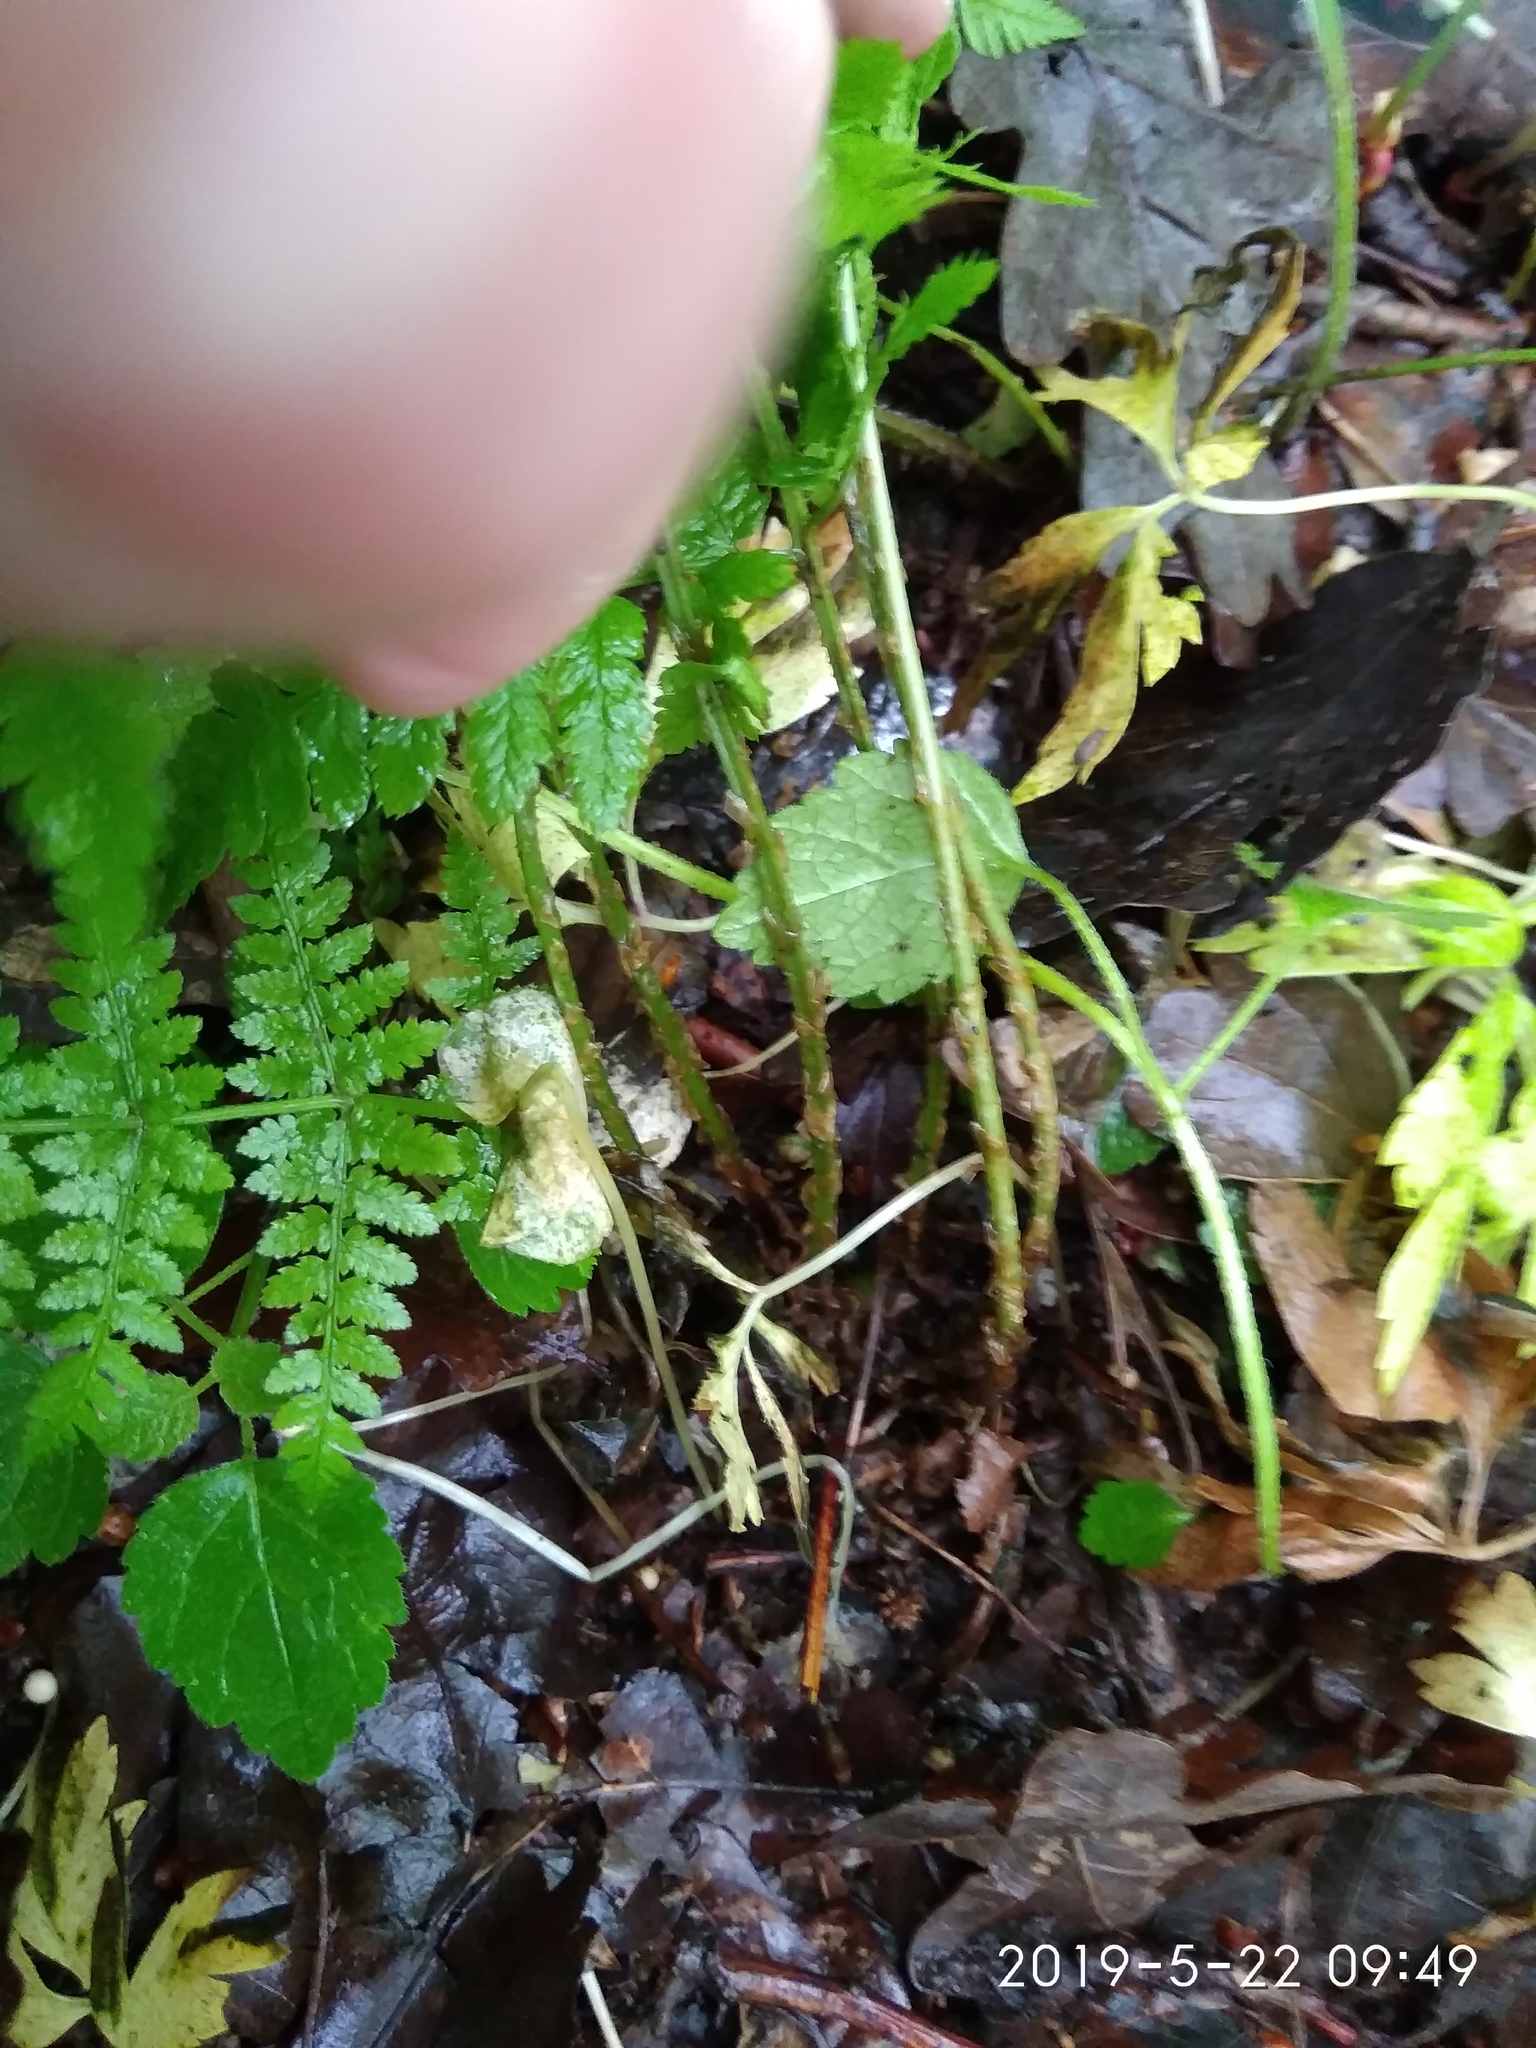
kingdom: Plantae
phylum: Tracheophyta
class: Polypodiopsida
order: Polypodiales
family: Dryopteridaceae
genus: Dryopteris
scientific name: Dryopteris carthusiana
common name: Narrow buckler-fern
